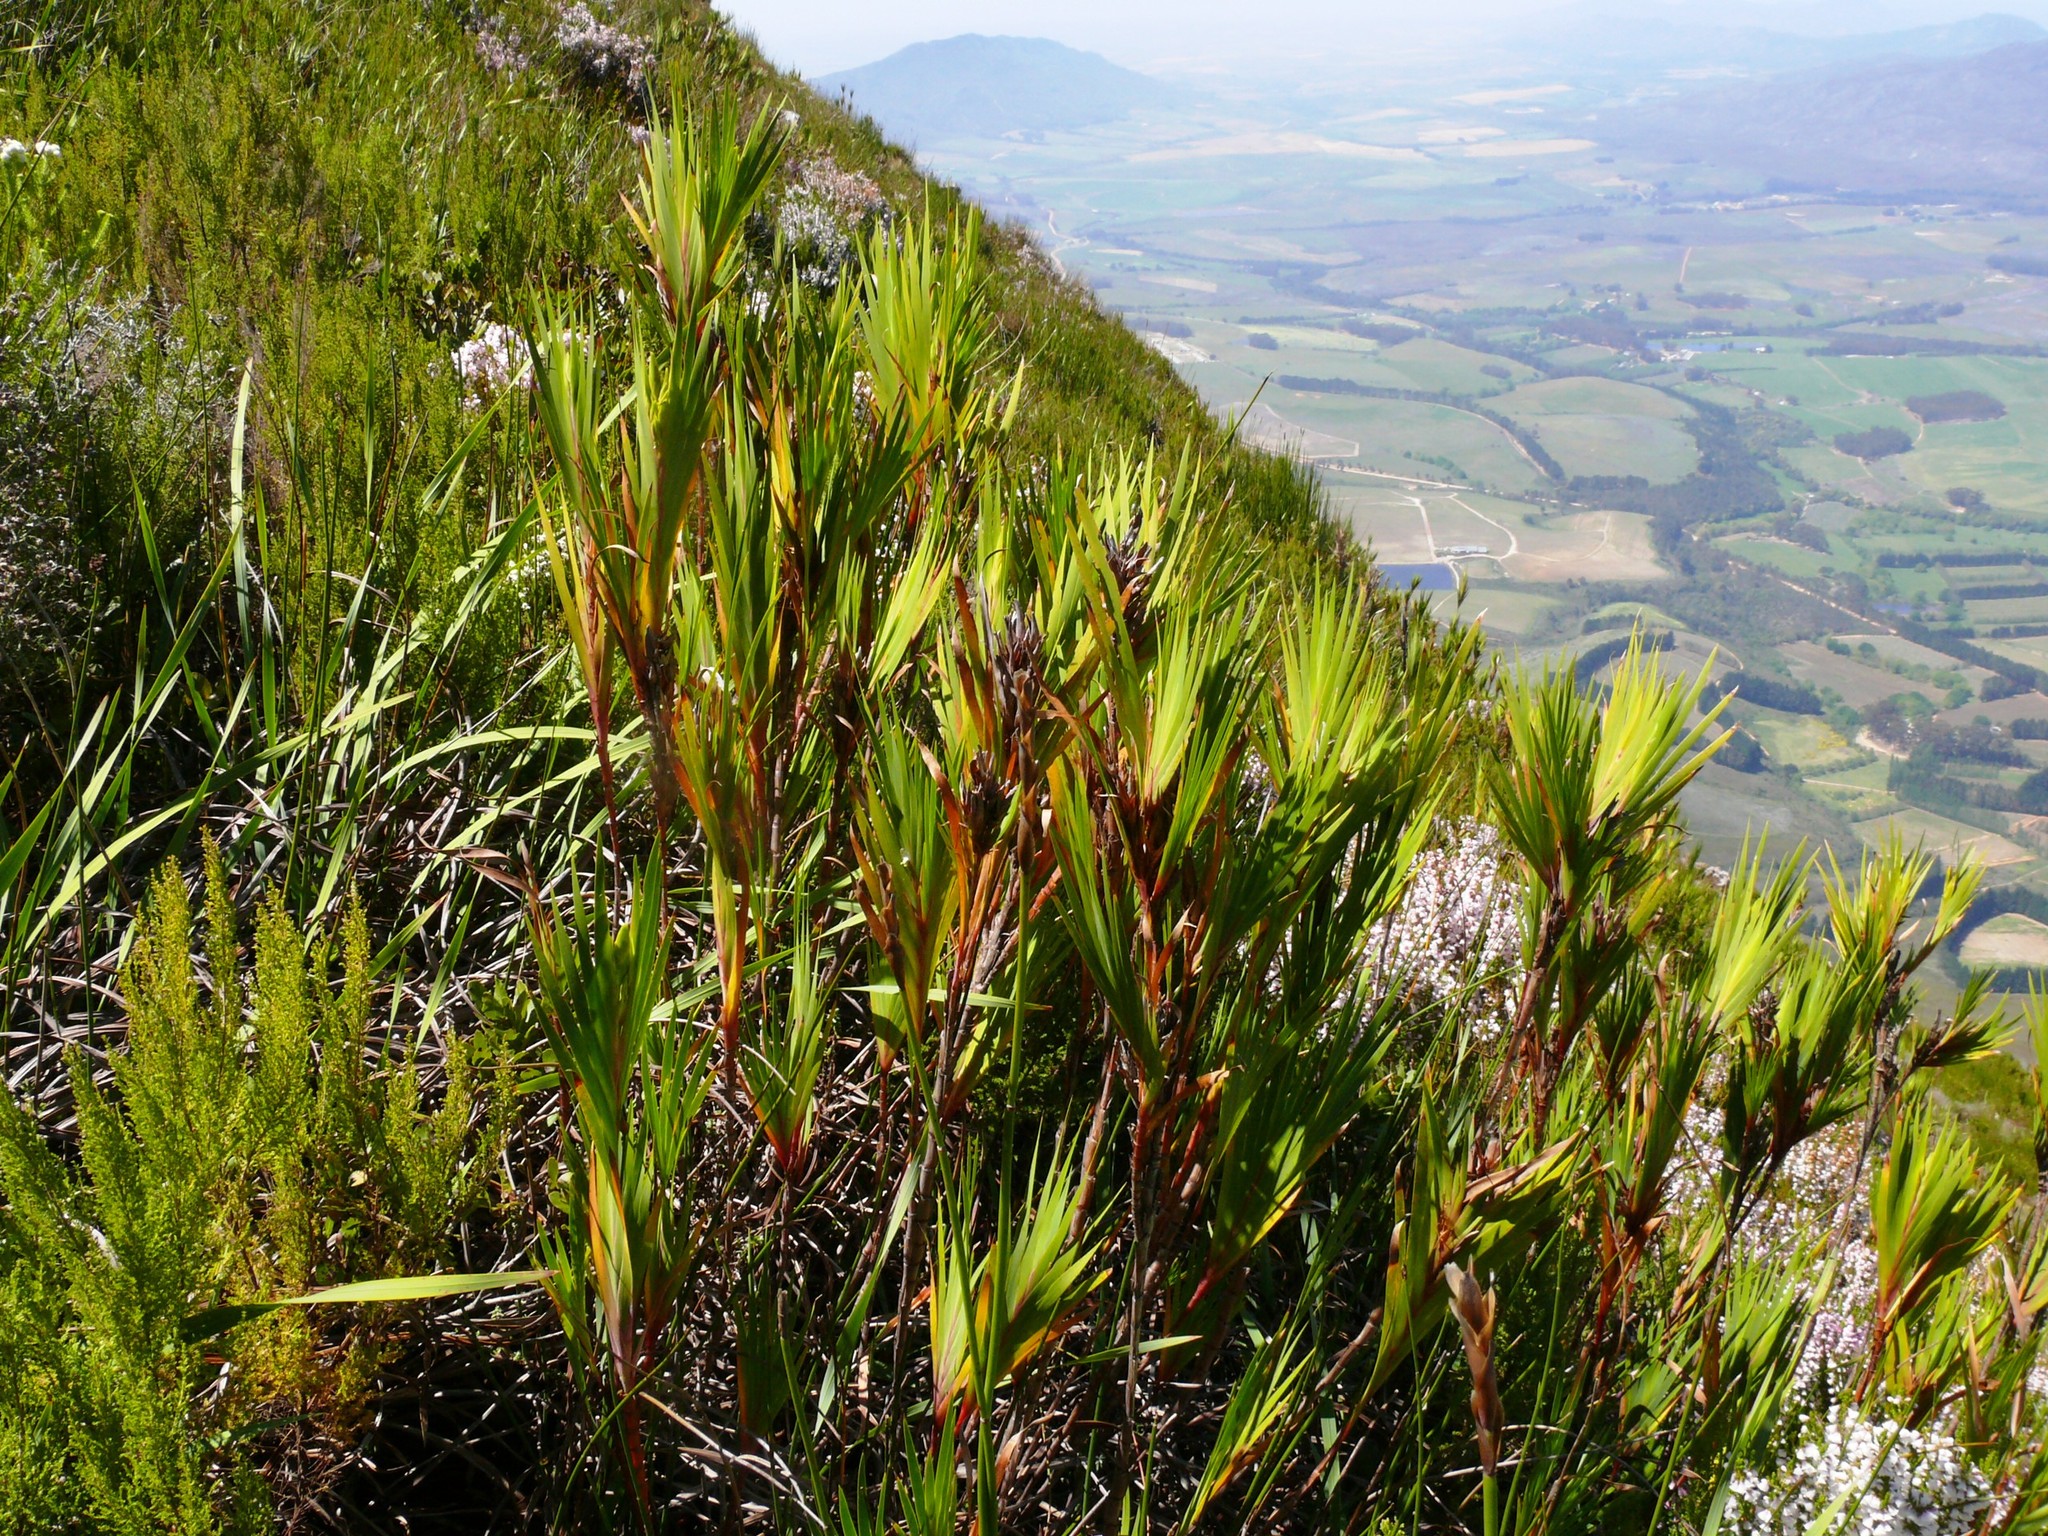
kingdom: Plantae
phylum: Tracheophyta
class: Liliopsida
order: Asparagales
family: Iridaceae
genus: Witsenia
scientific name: Witsenia maura
